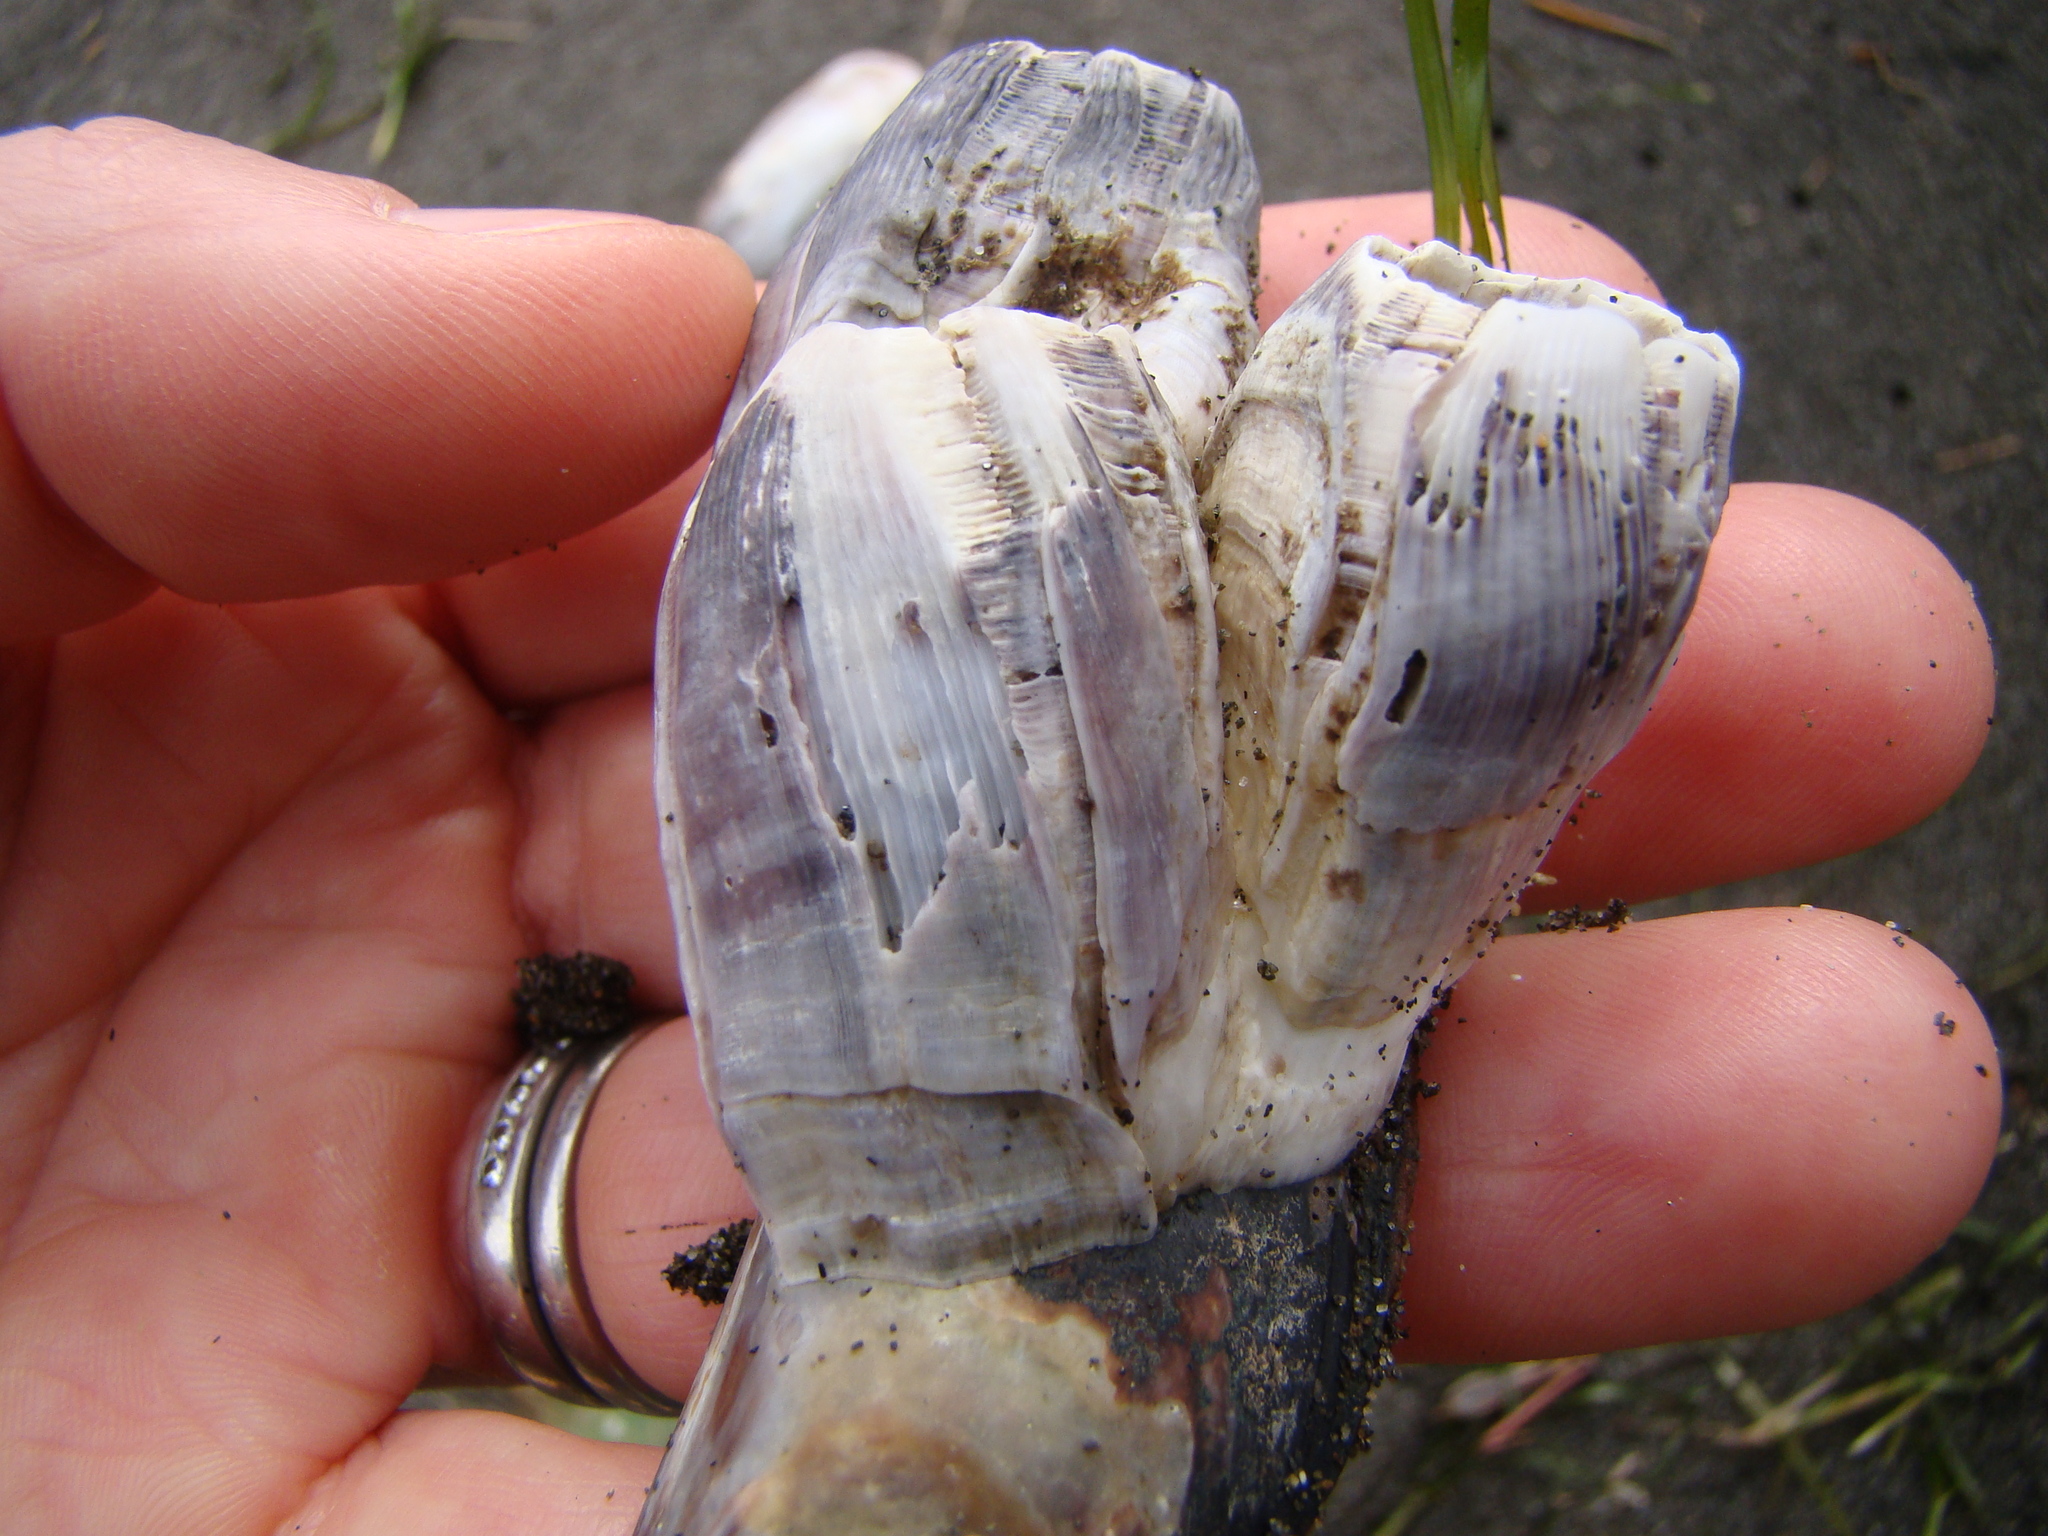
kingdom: Animalia
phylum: Arthropoda
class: Maxillopoda
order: Sessilia
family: Balanidae
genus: Austromegabalanus
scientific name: Austromegabalanus nigrescens
